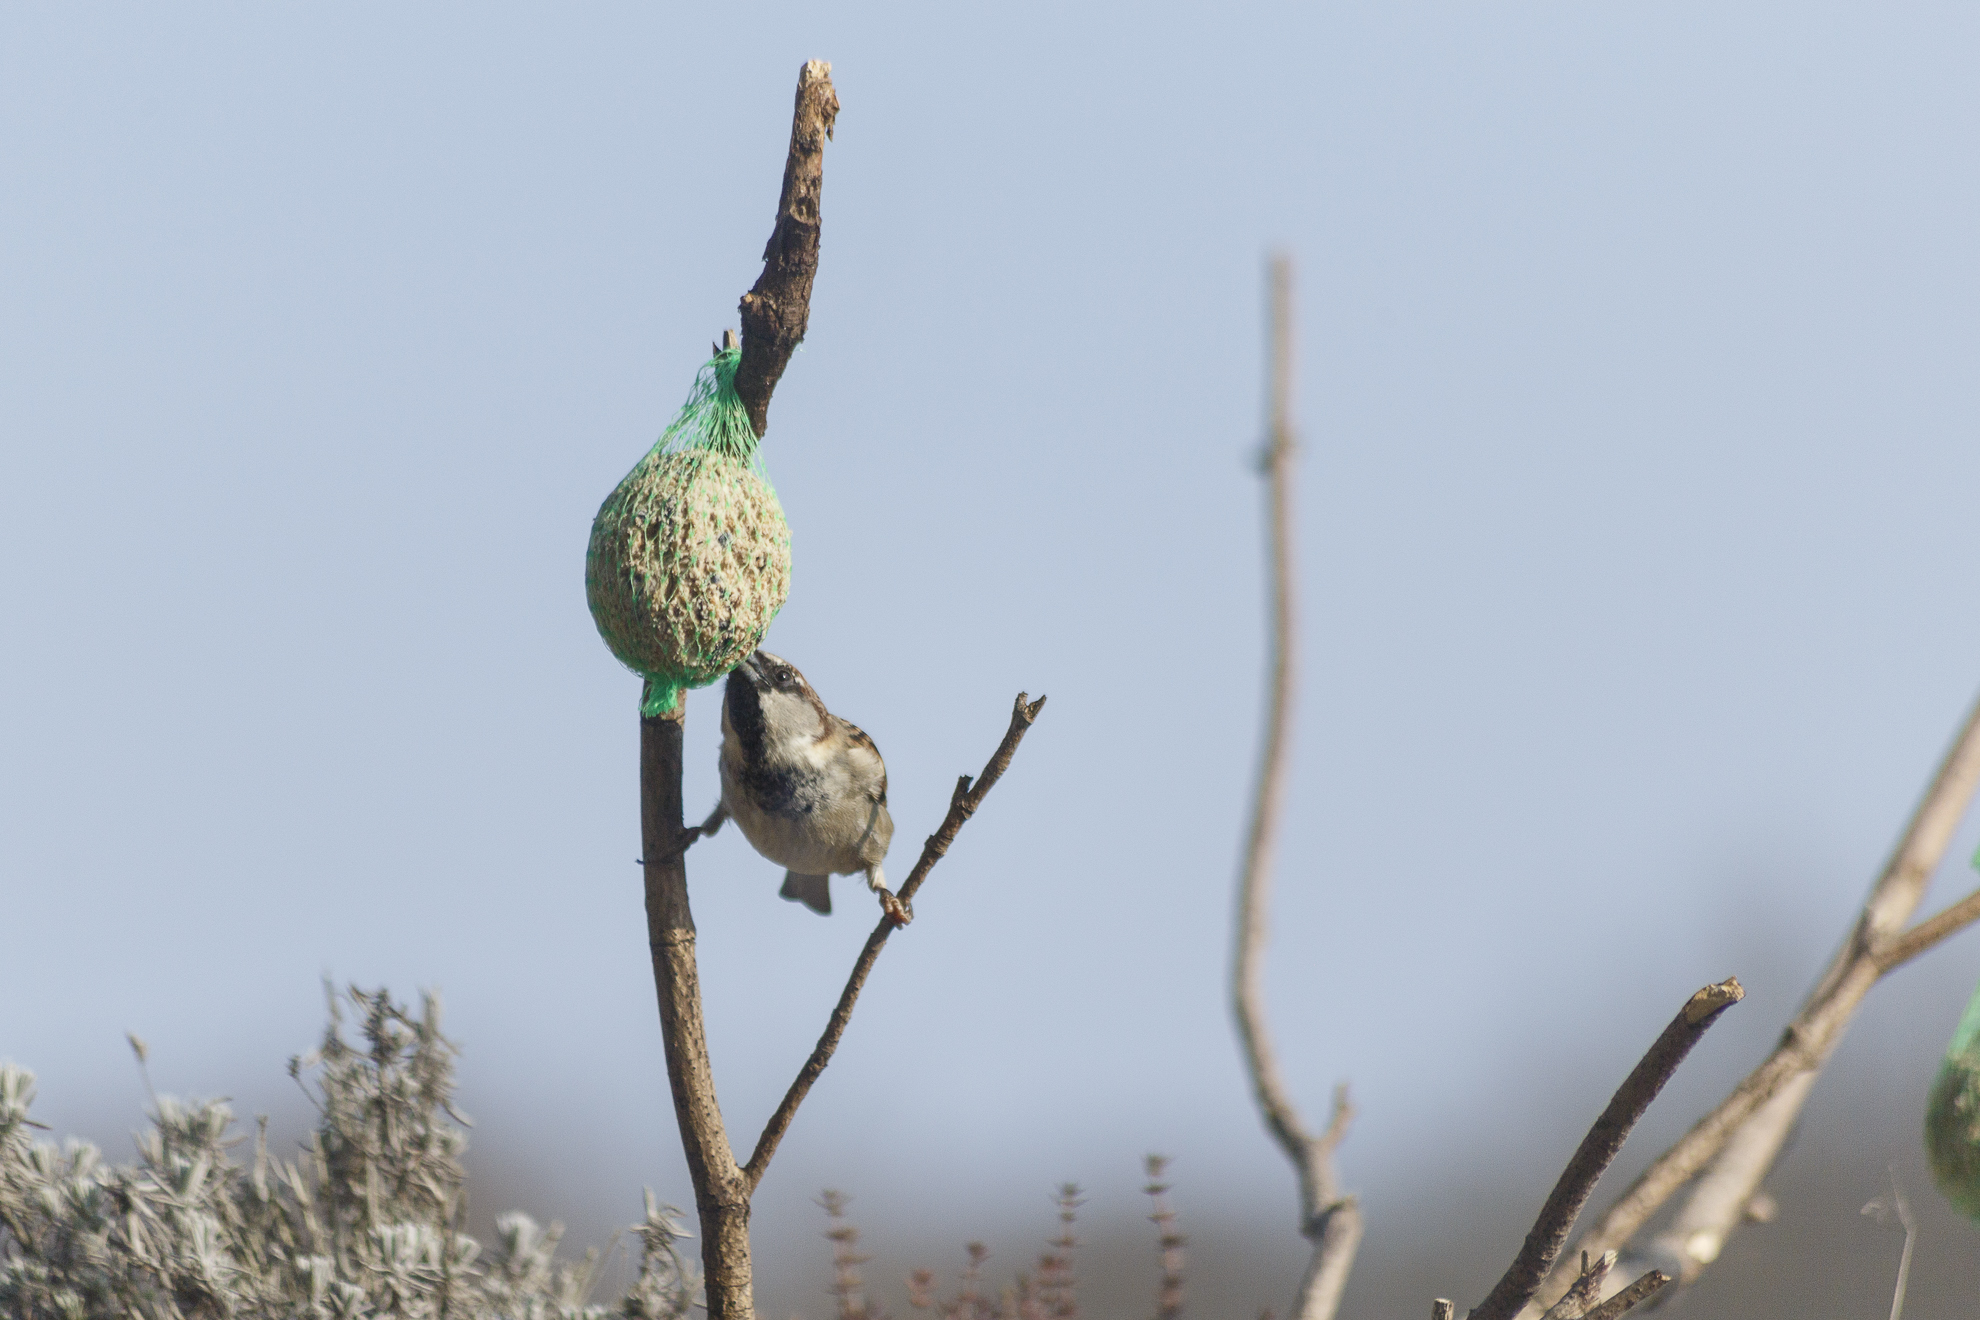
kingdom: Animalia
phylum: Chordata
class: Aves
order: Passeriformes
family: Passeridae
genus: Passer
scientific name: Passer domesticus
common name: House sparrow
